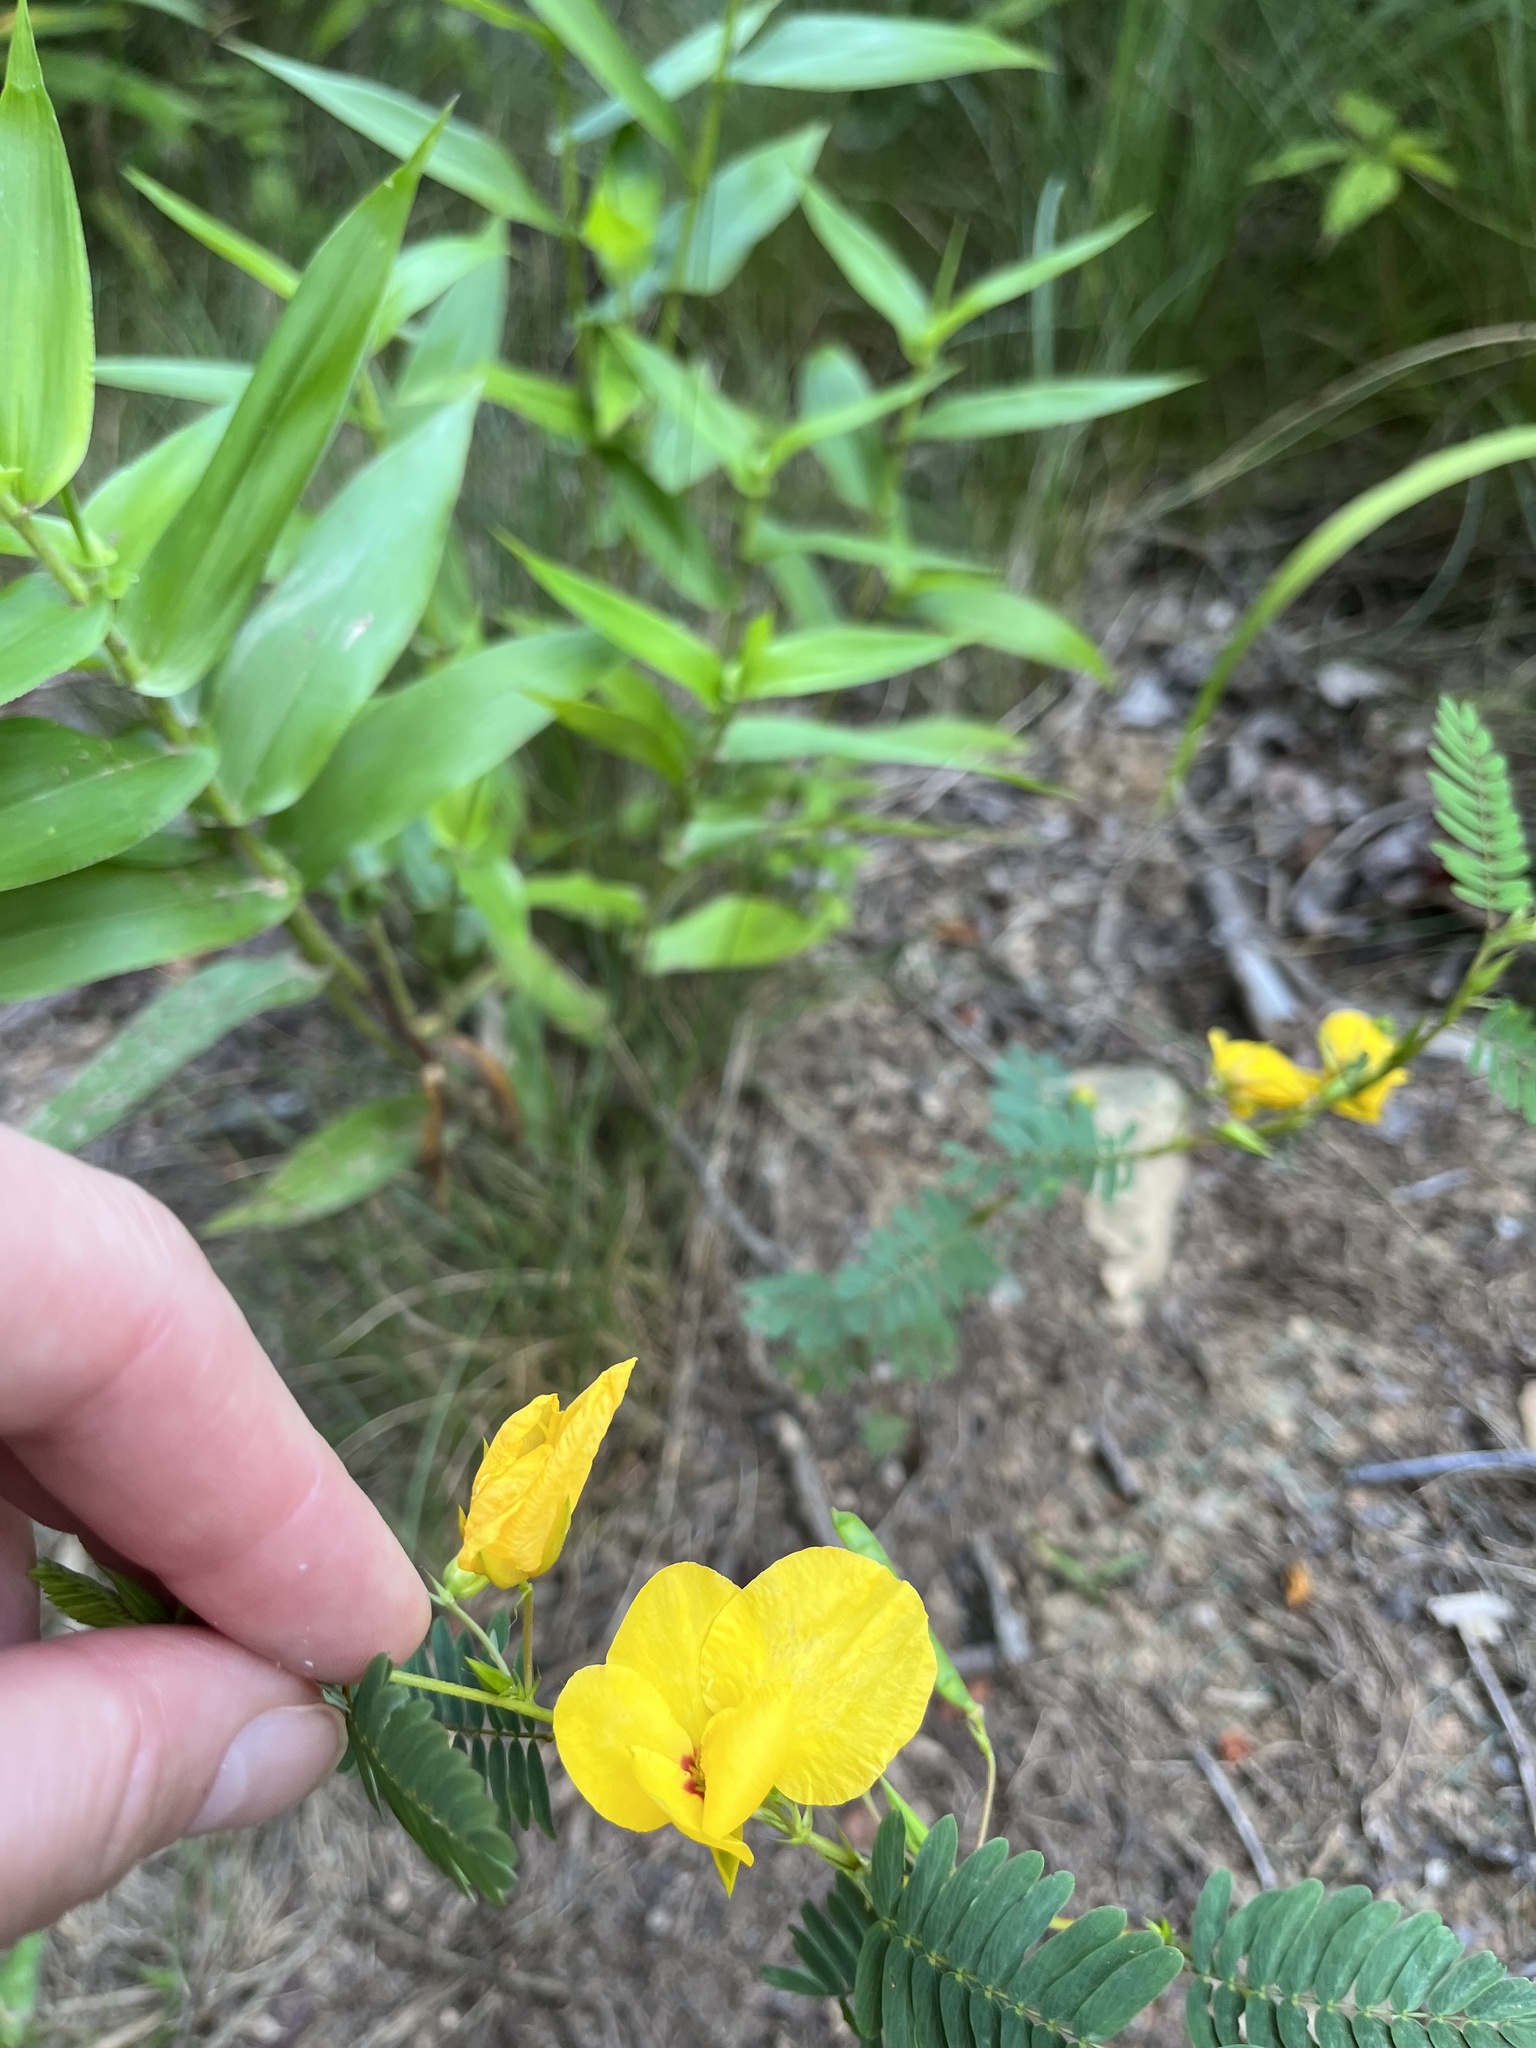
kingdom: Plantae
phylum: Tracheophyta
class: Magnoliopsida
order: Fabales
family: Fabaceae
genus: Chamaecrista
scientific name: Chamaecrista fasciculata
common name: Golden cassia
